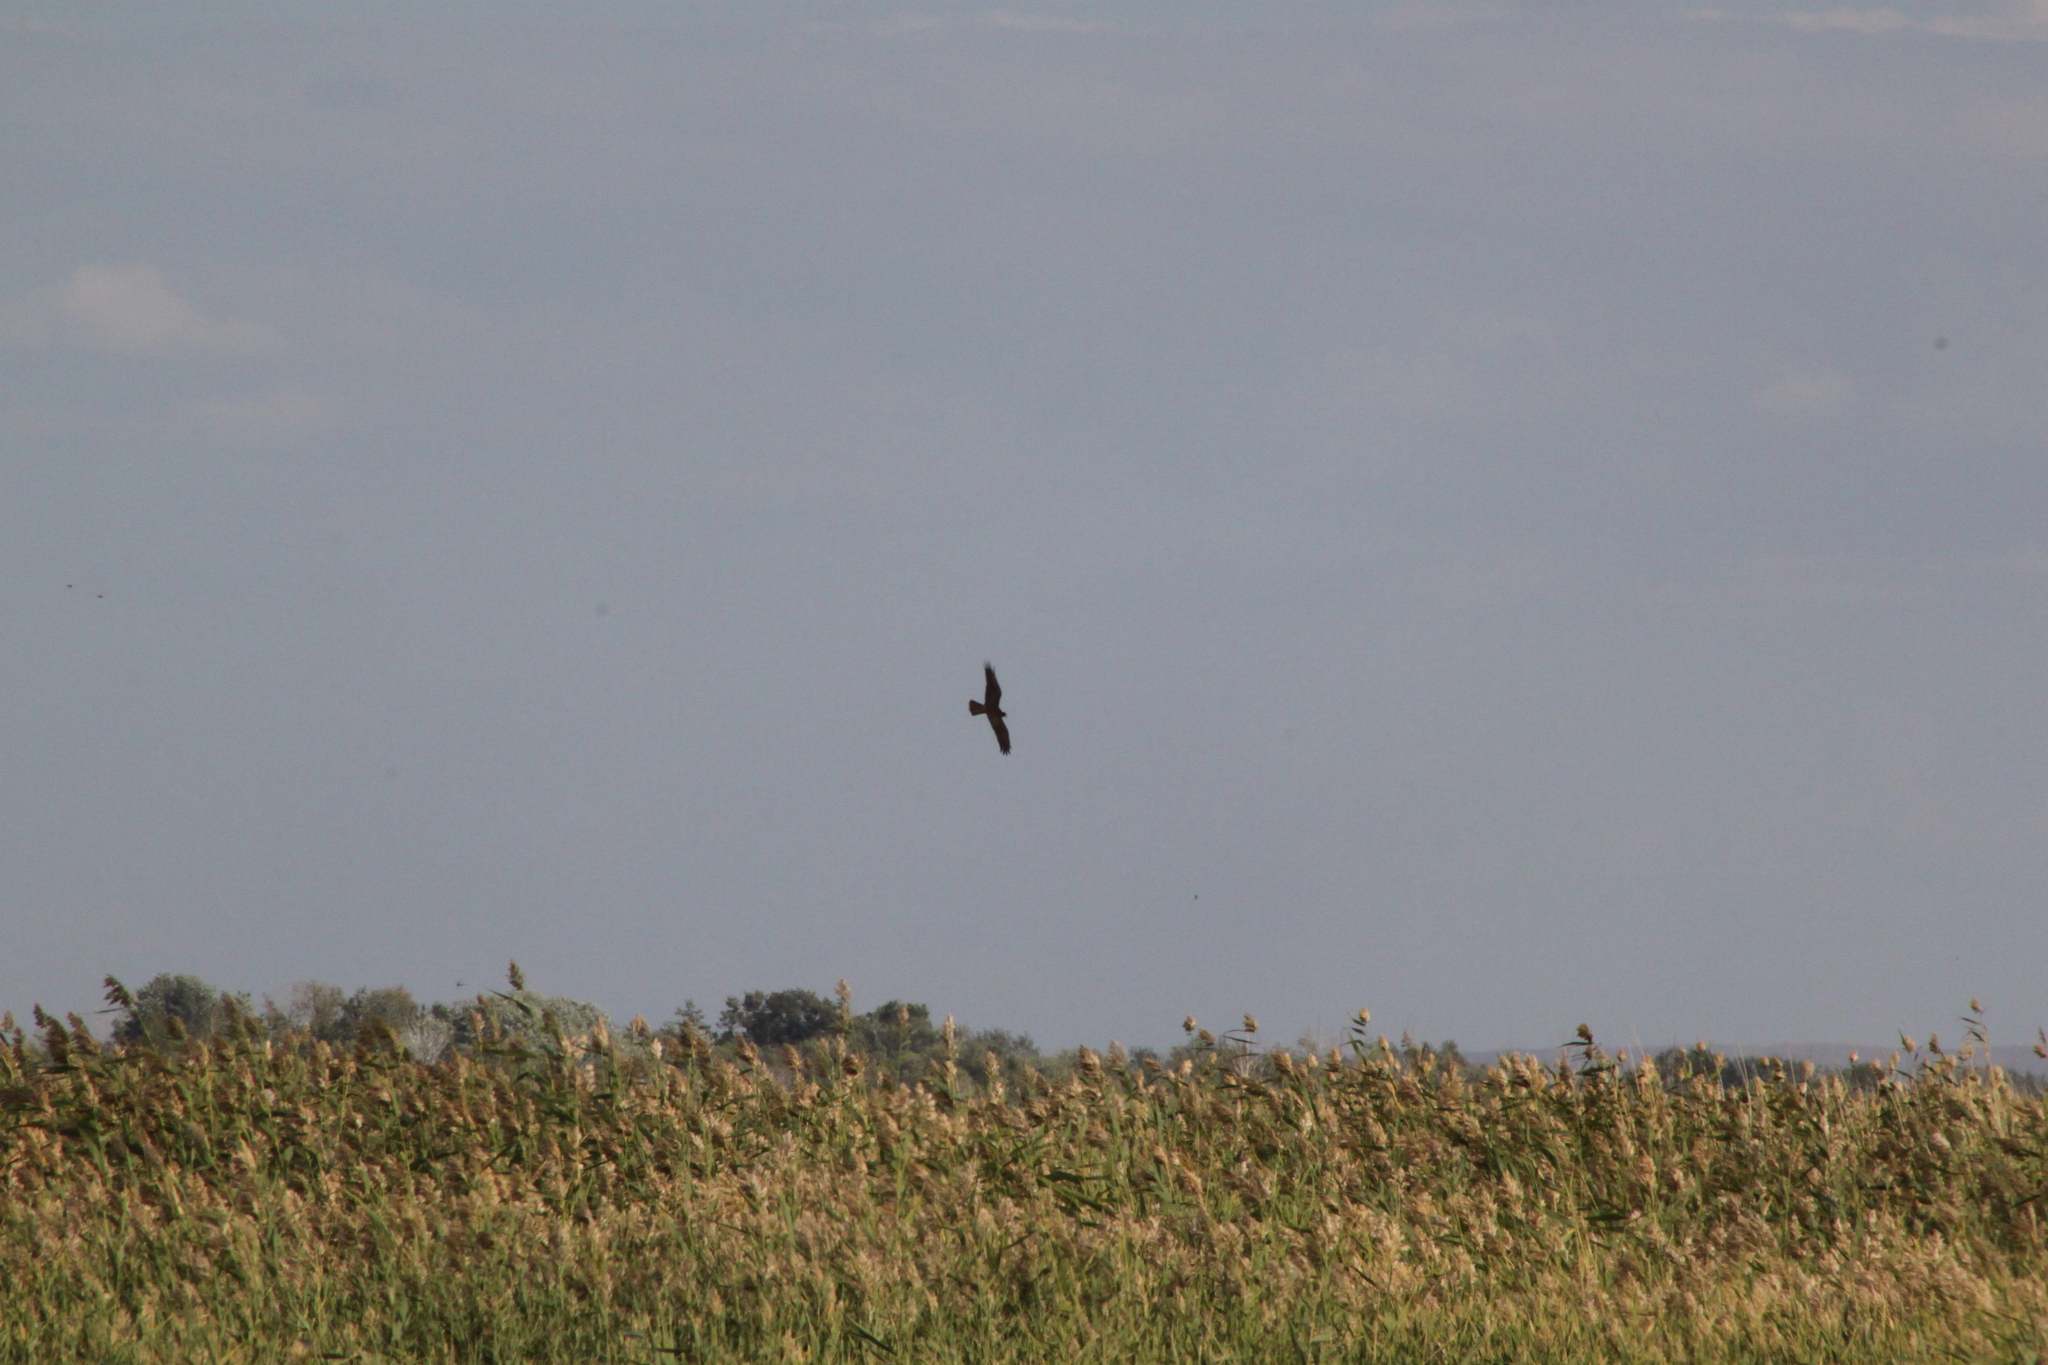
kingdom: Animalia
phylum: Chordata
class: Aves
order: Accipitriformes
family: Accipitridae
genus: Circus
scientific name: Circus aeruginosus
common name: Western marsh harrier
